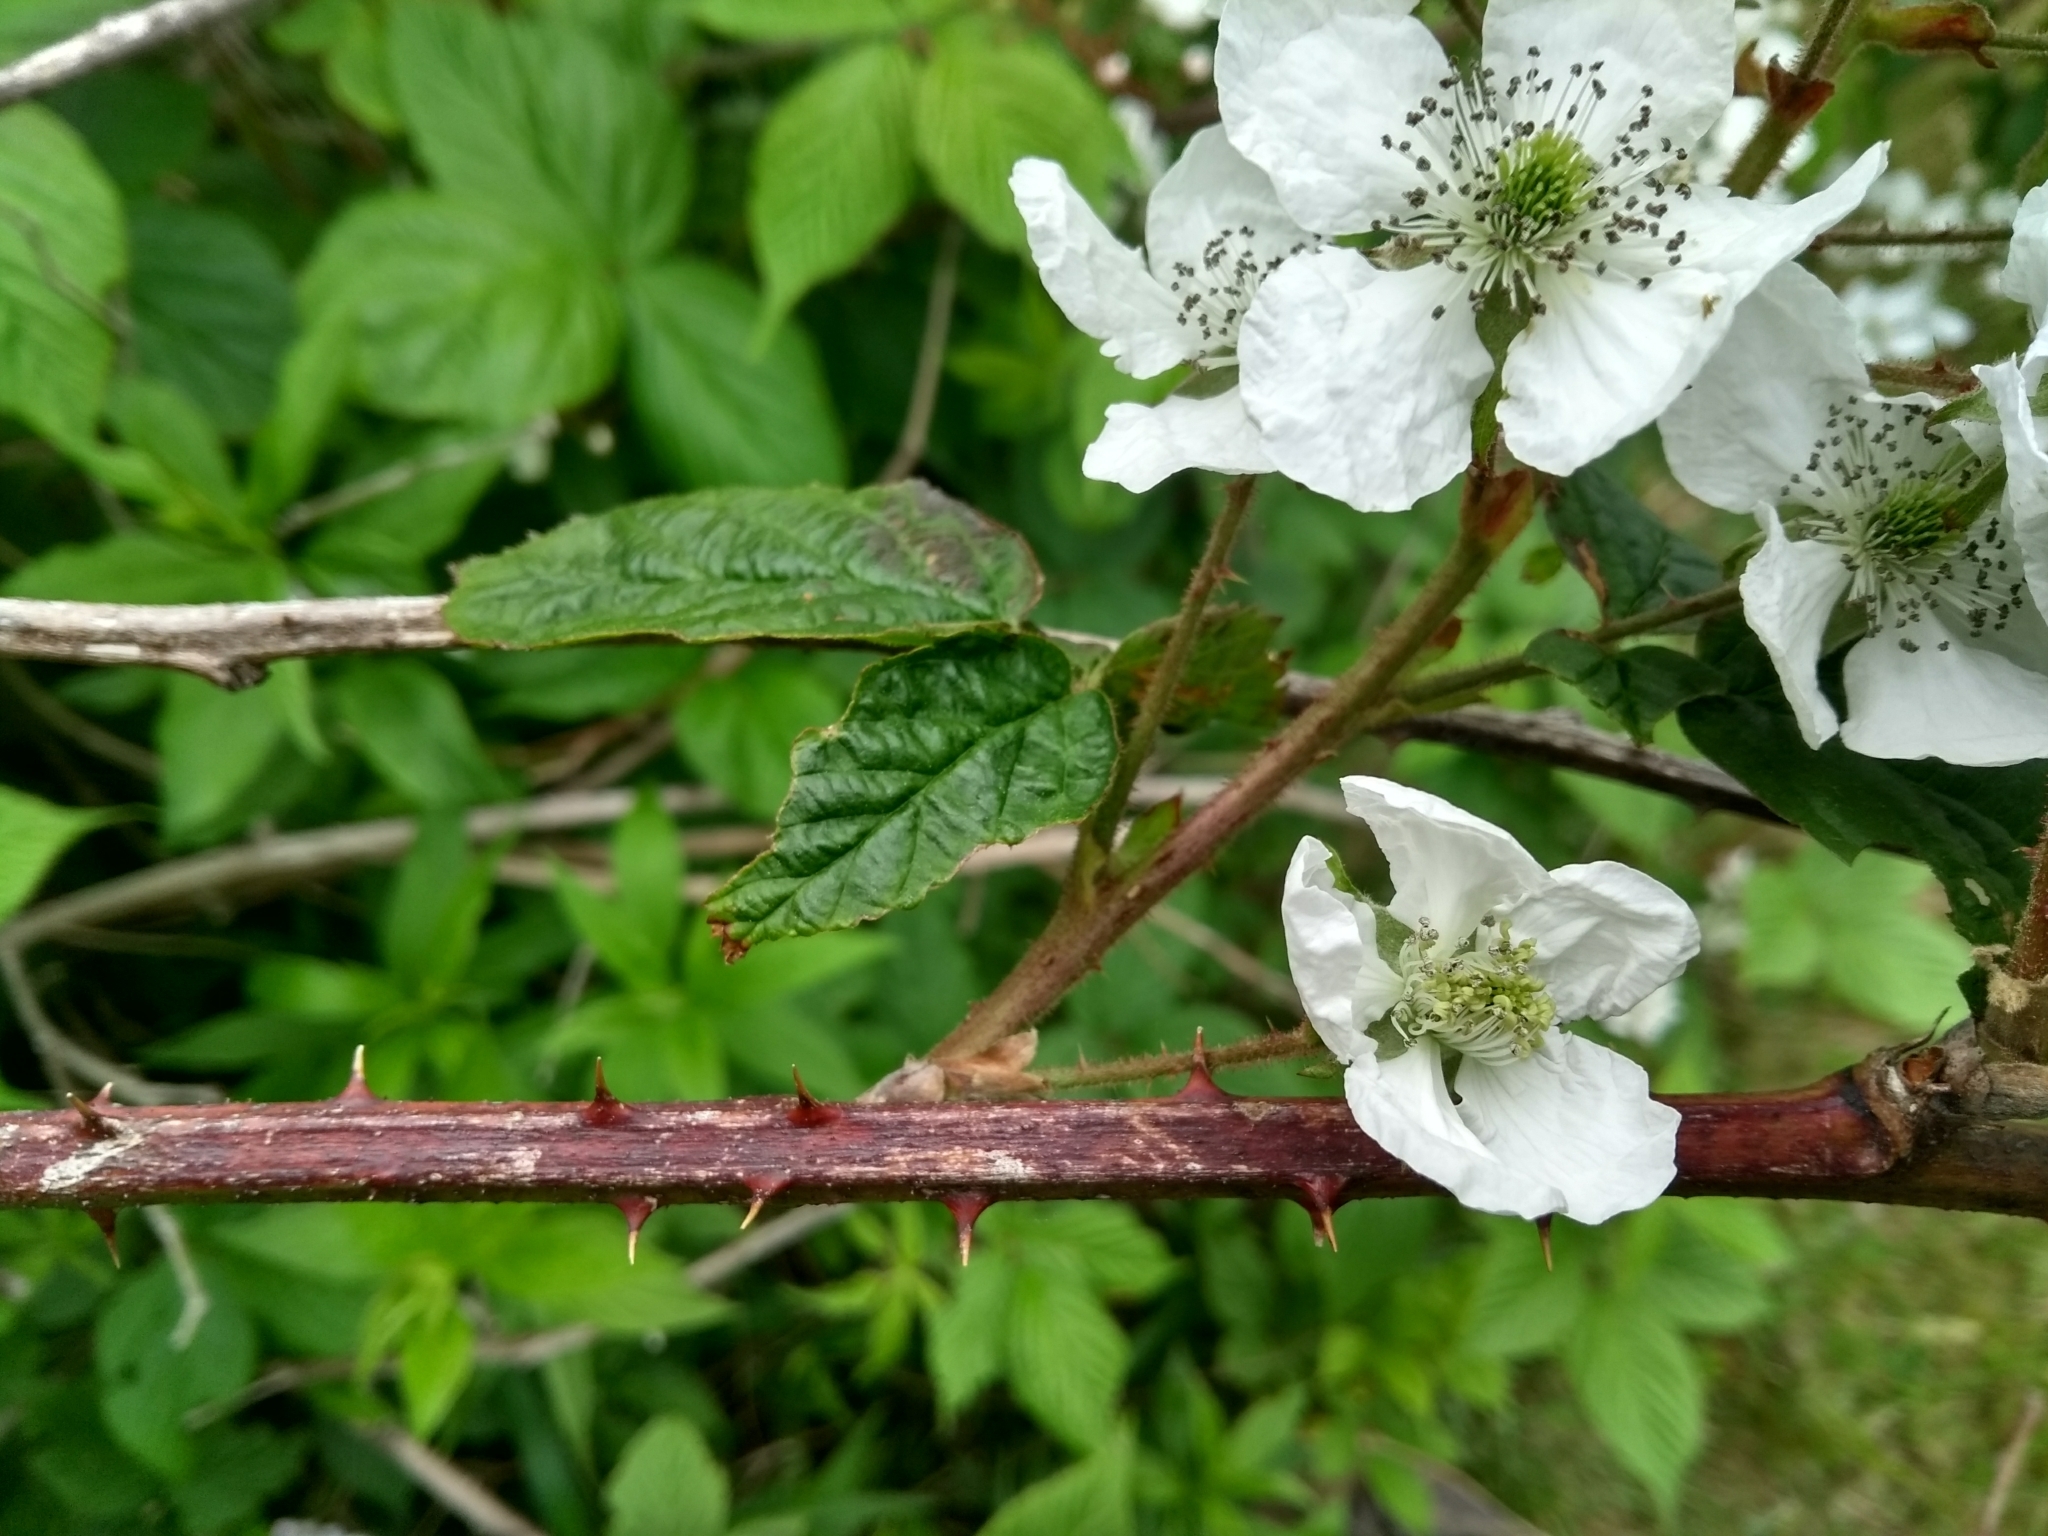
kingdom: Plantae
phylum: Tracheophyta
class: Magnoliopsida
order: Rosales
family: Rosaceae
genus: Rubus
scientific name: Rubus allegheniensis
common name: Allegheny blackberry
